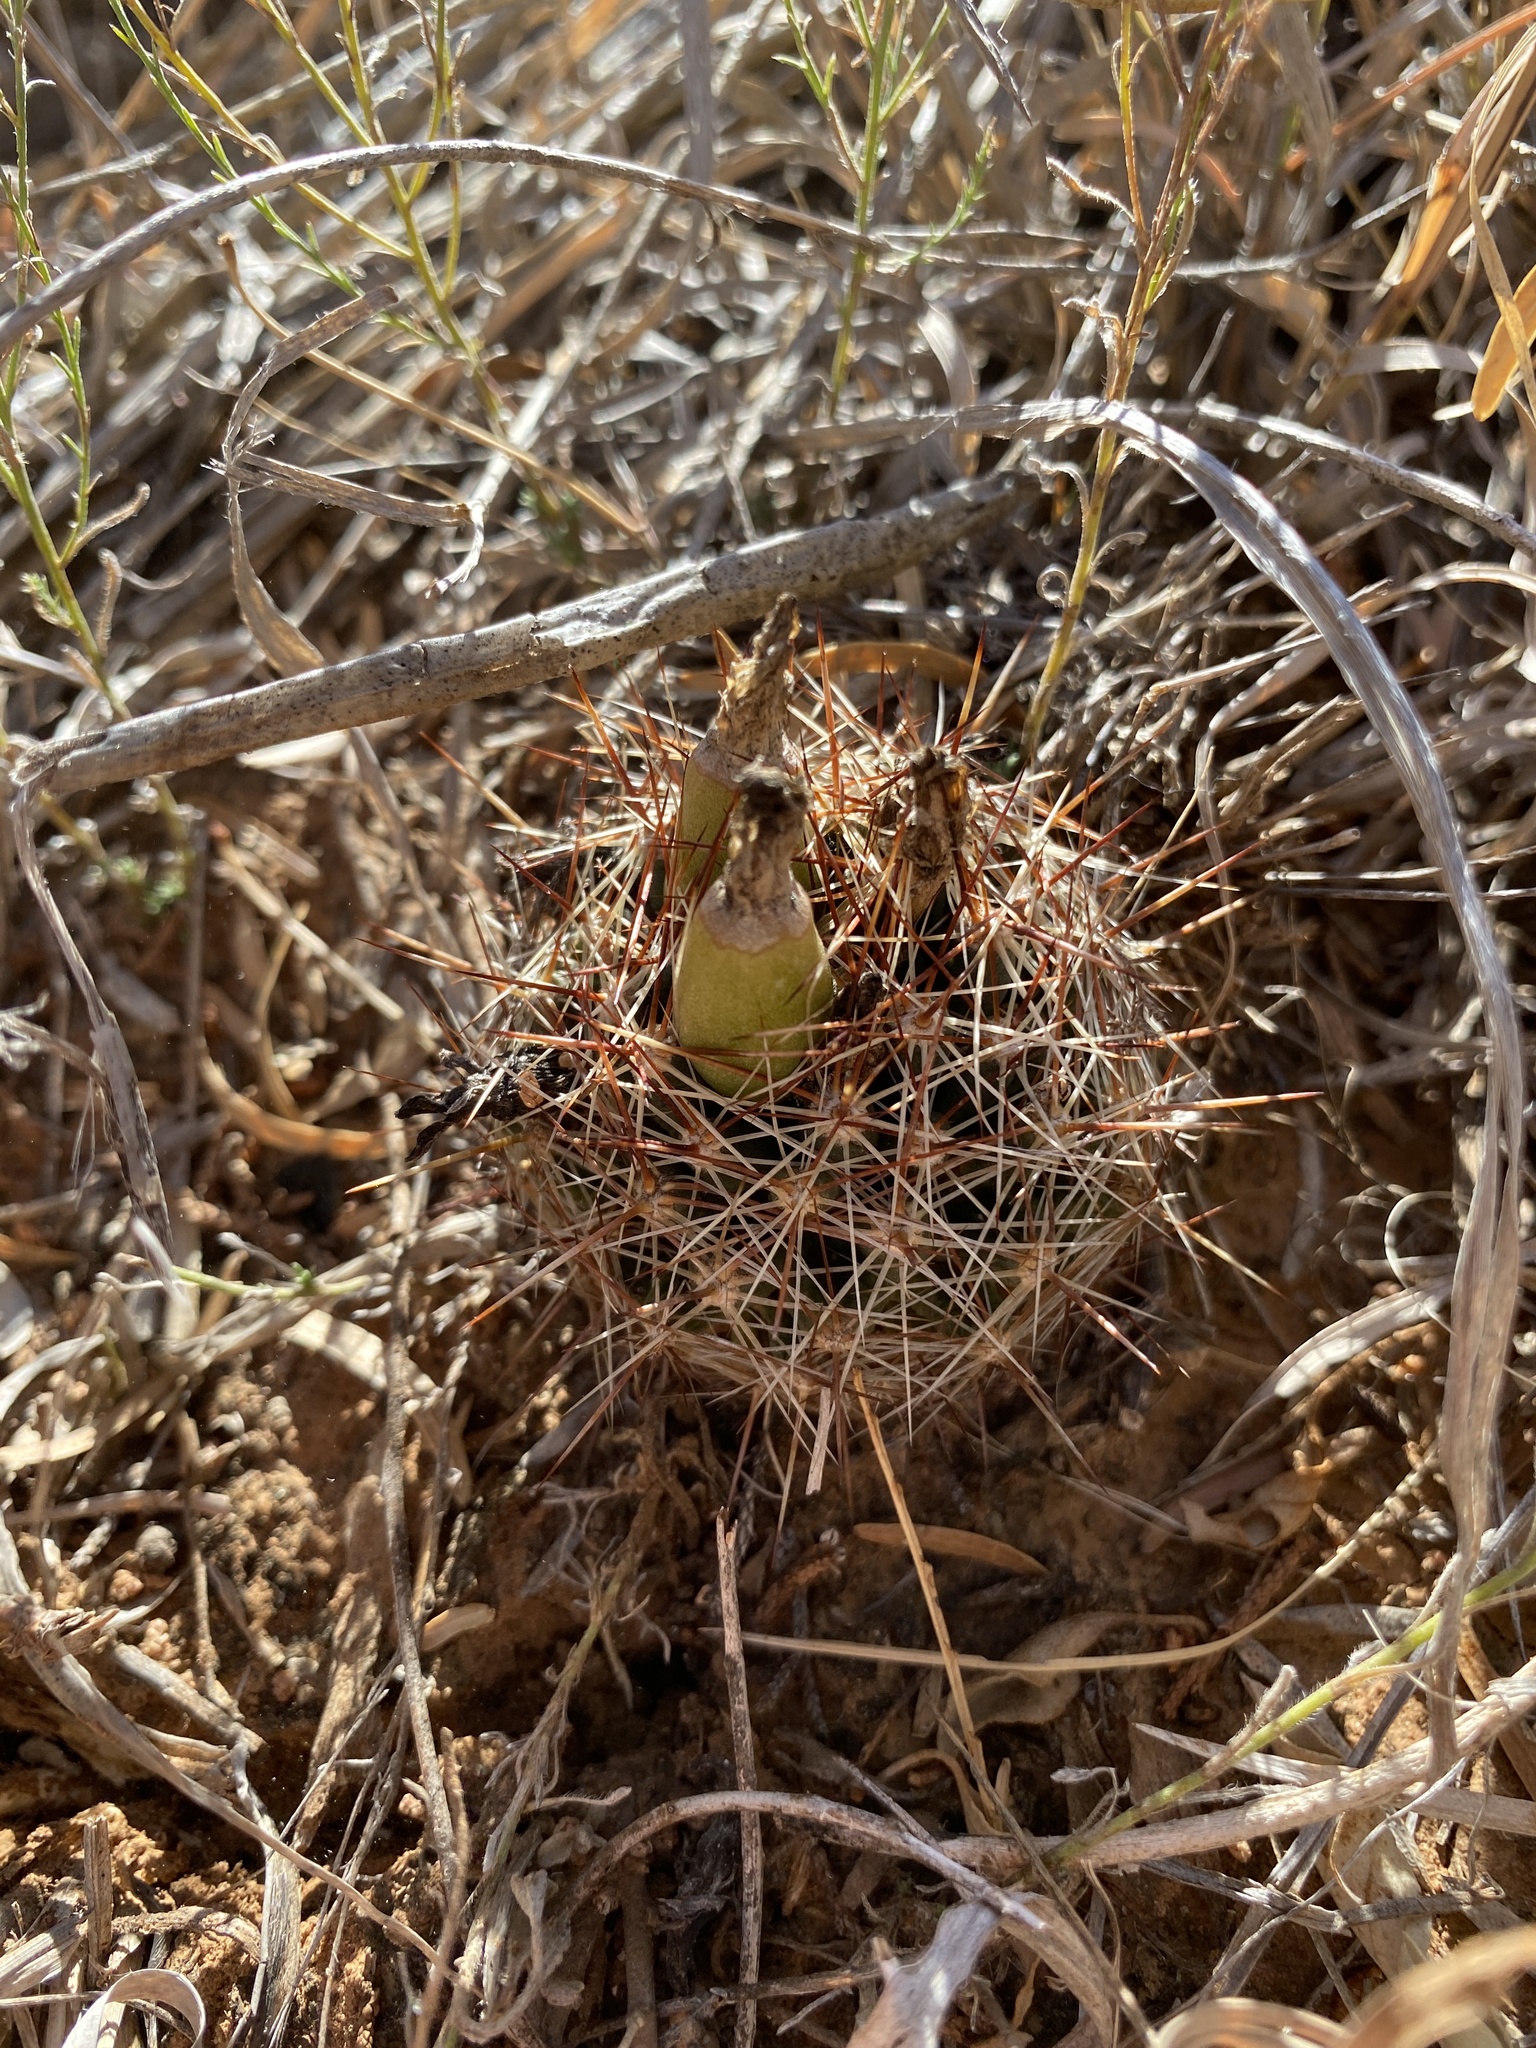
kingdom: Plantae
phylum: Tracheophyta
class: Magnoliopsida
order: Caryophyllales
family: Cactaceae
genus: Pelecyphora
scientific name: Pelecyphora vivipara
